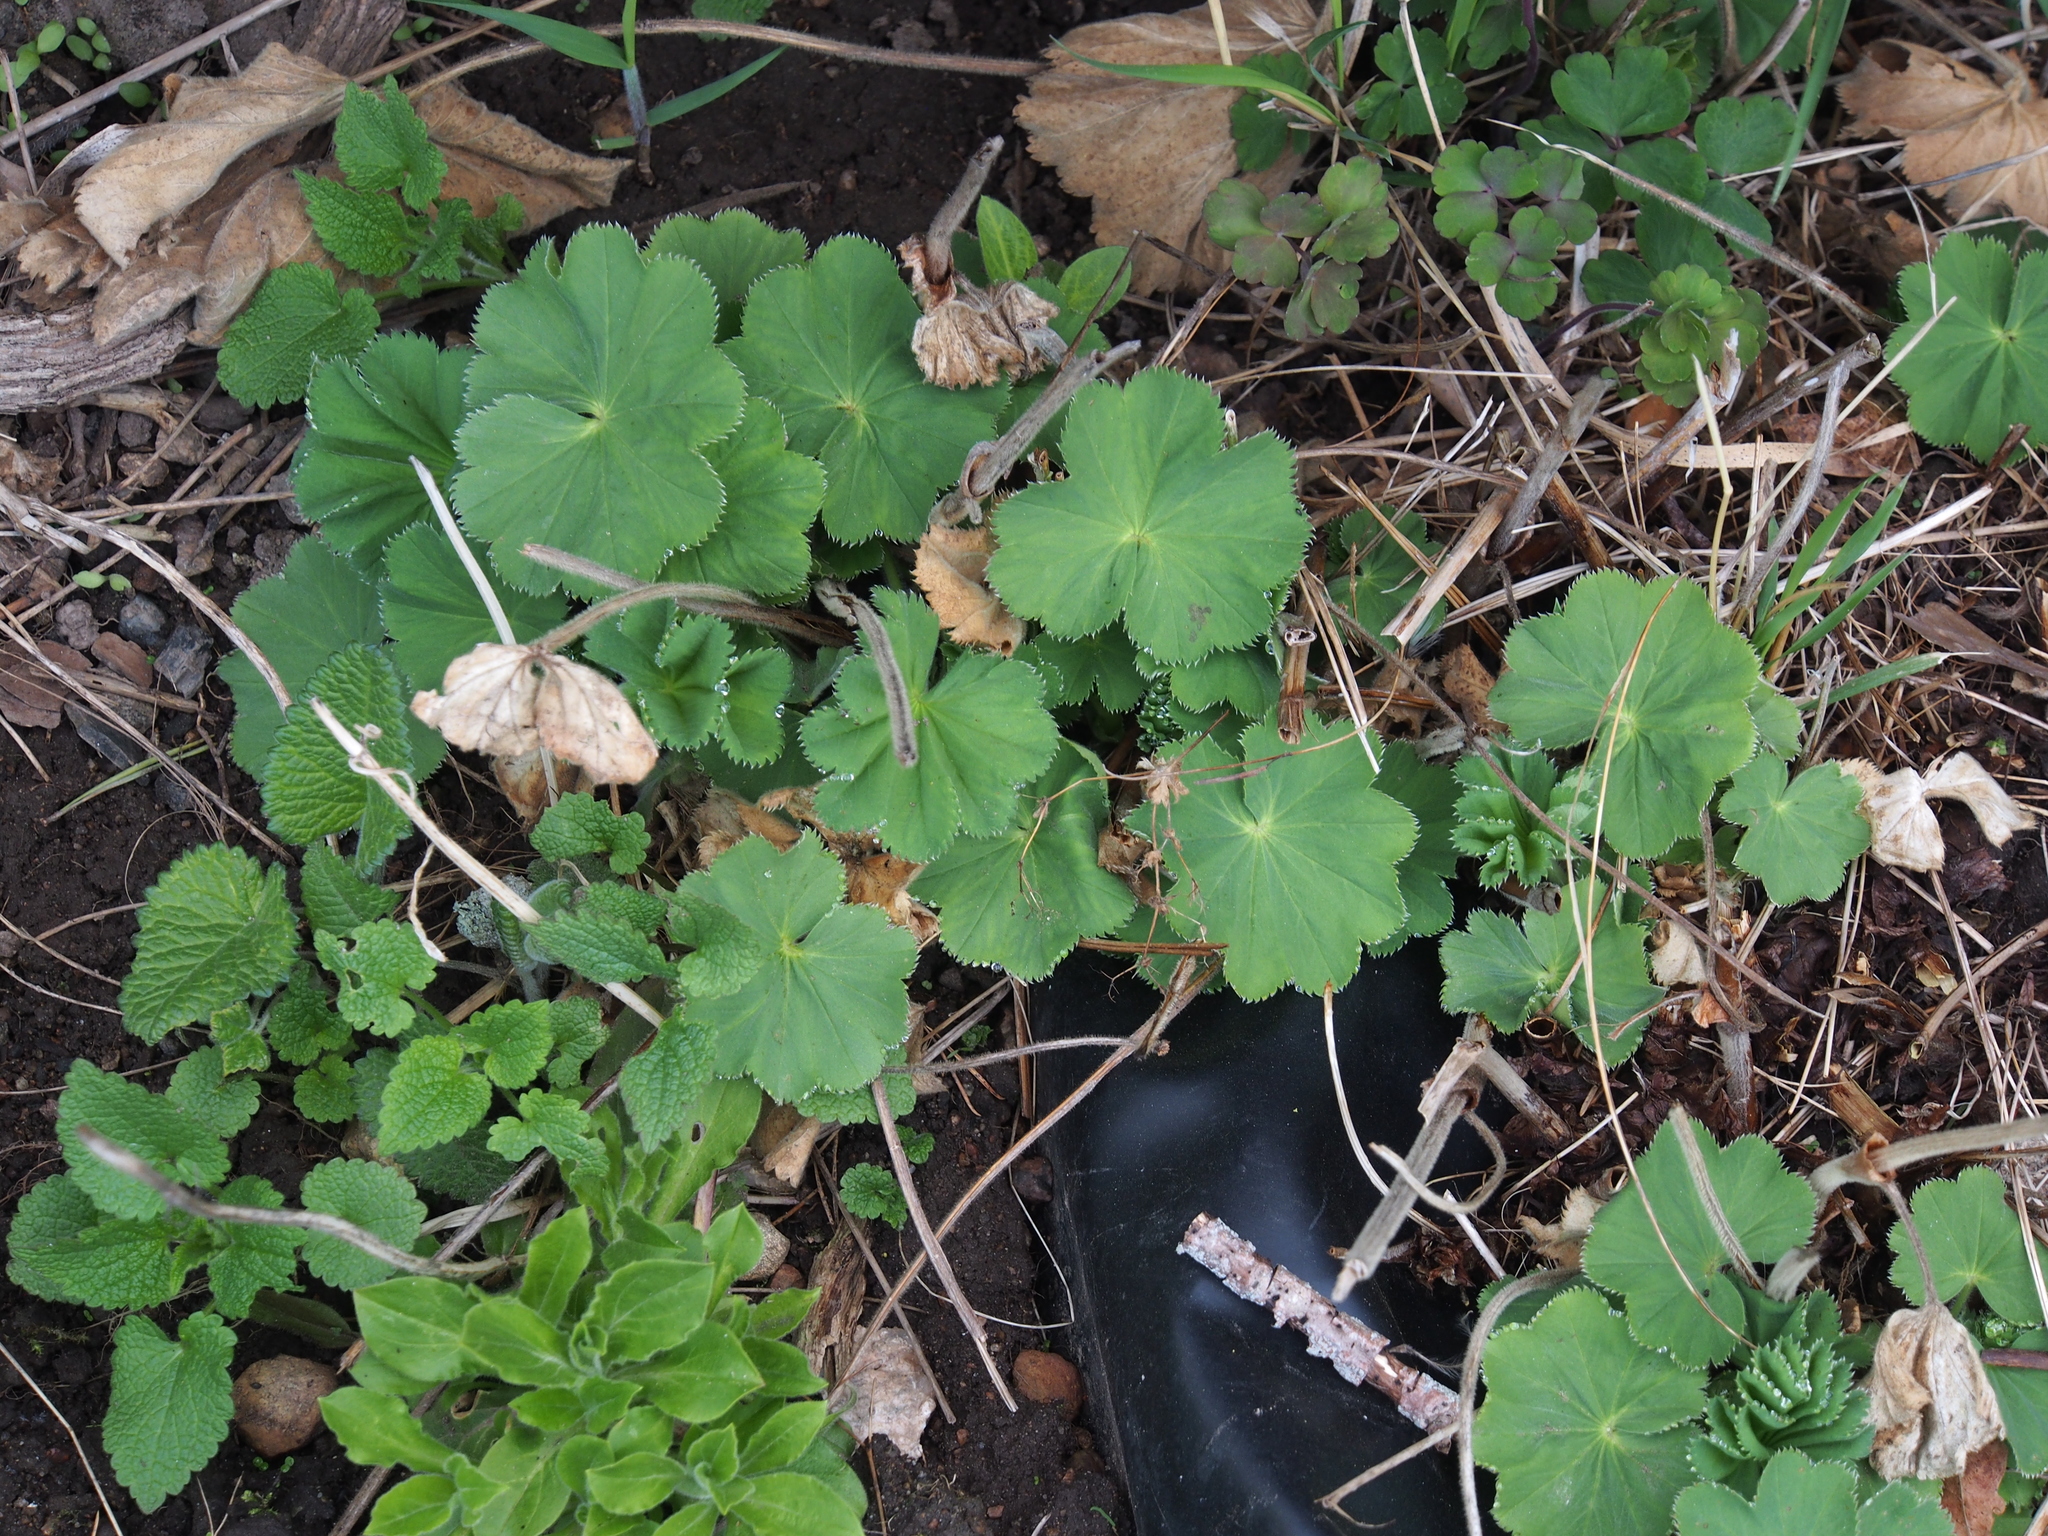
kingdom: Plantae
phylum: Tracheophyta
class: Magnoliopsida
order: Rosales
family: Rosaceae
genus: Alchemilla
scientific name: Alchemilla mollis
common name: Lady's-mantle
